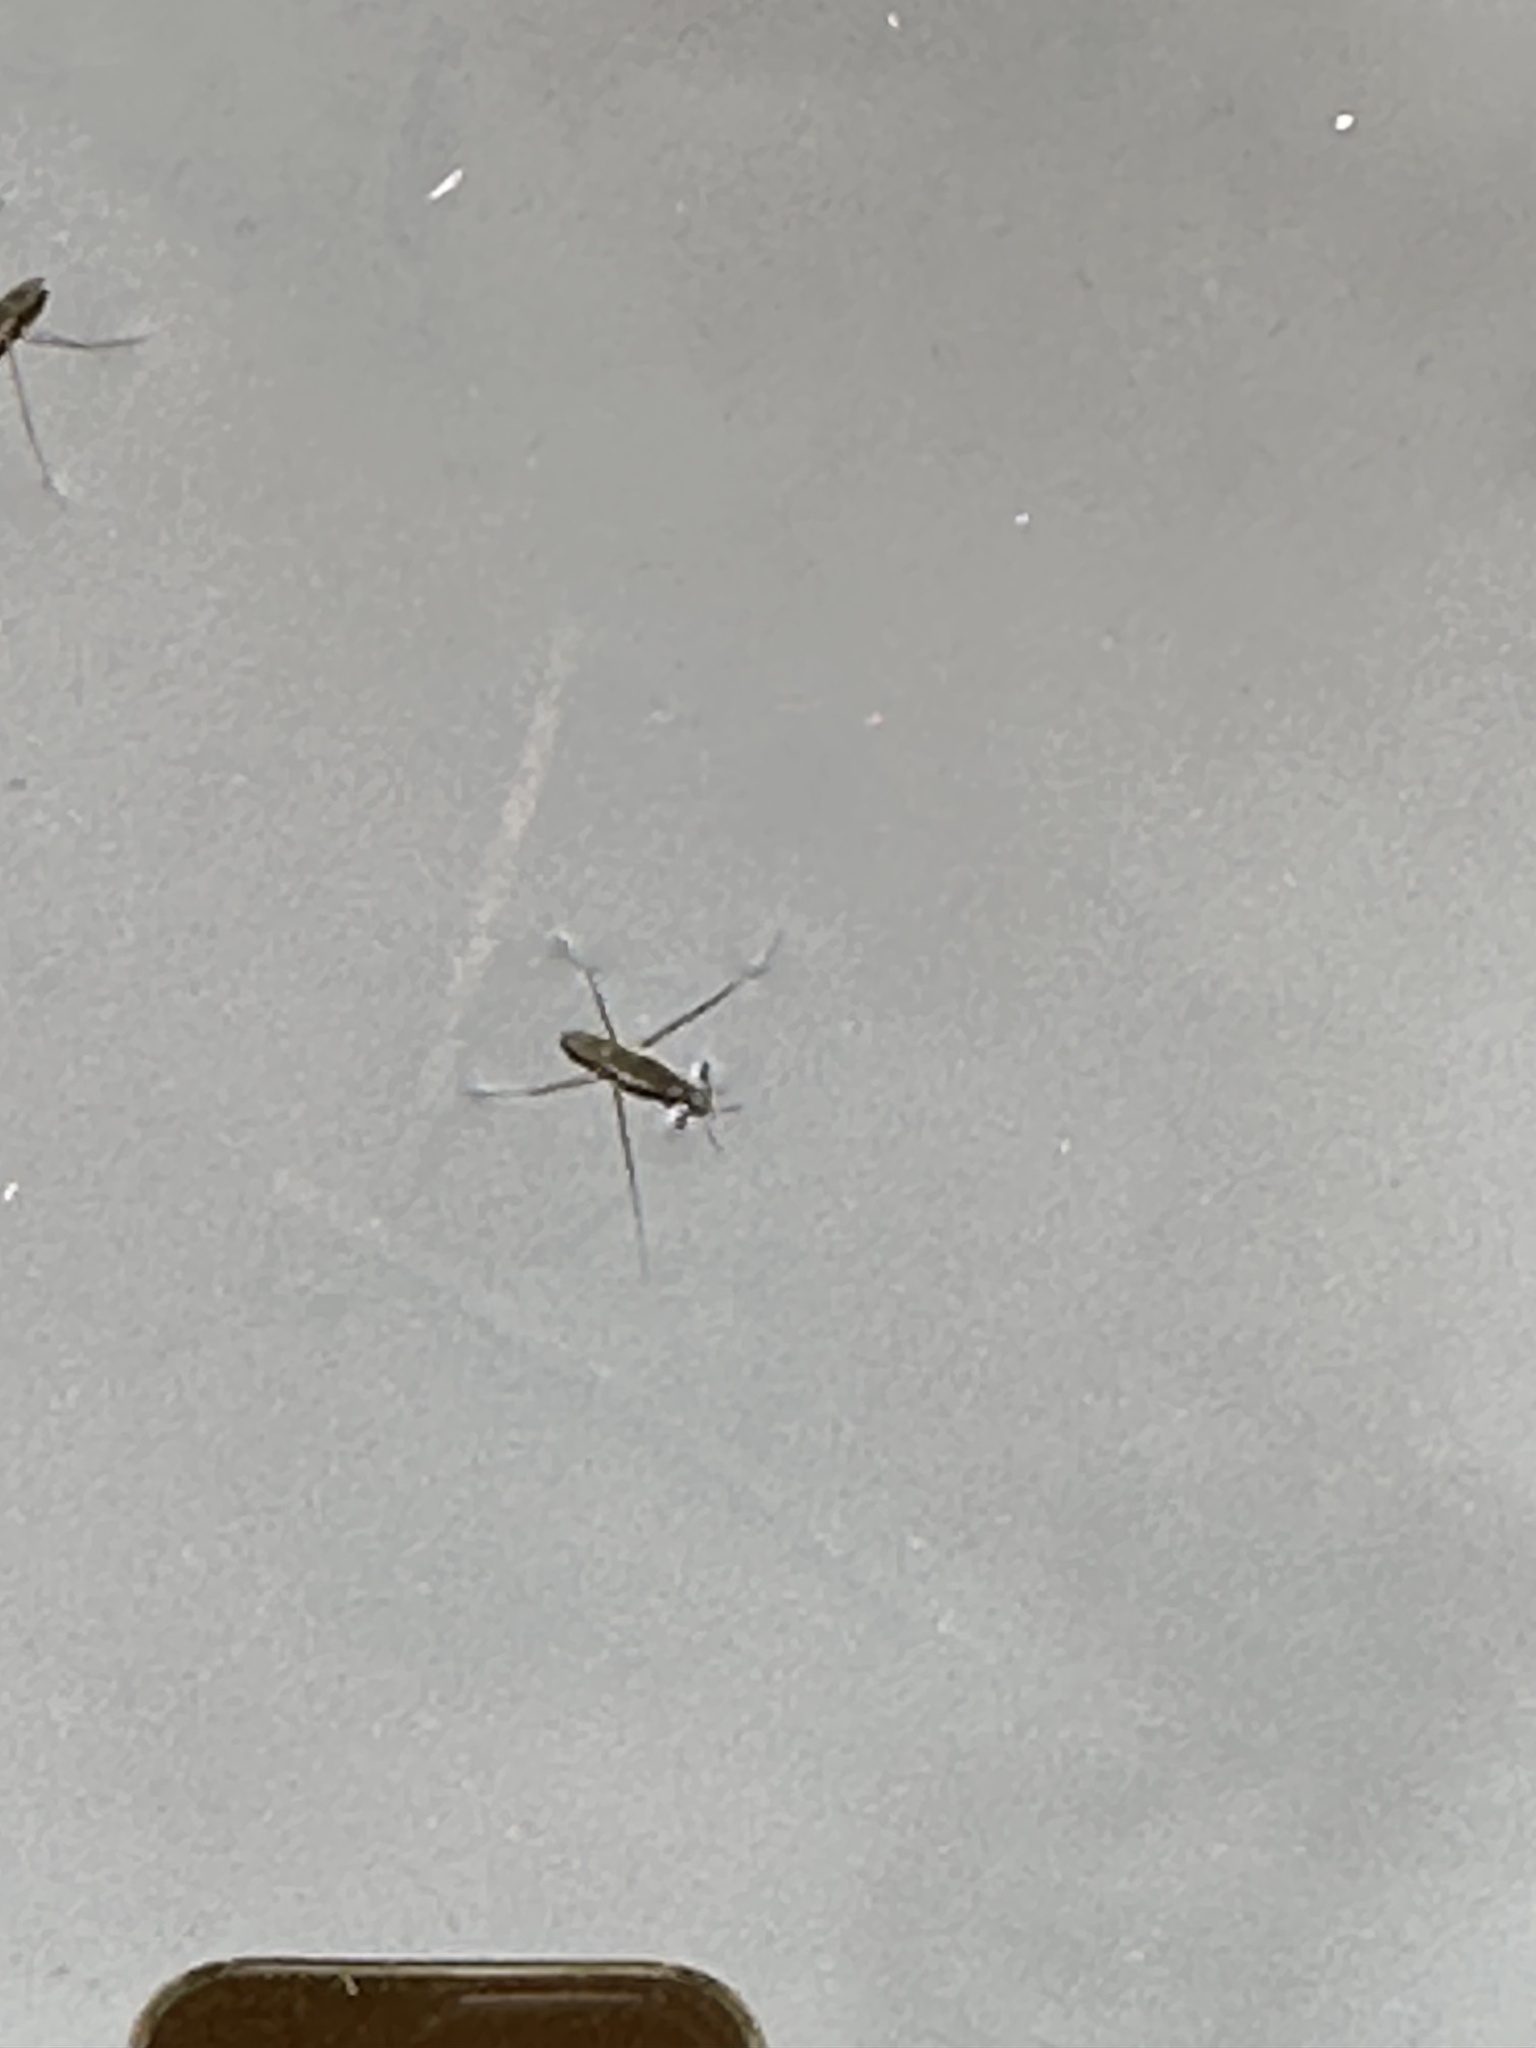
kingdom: Animalia
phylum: Arthropoda
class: Insecta
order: Hemiptera
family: Gerridae
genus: Gerris
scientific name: Gerris
